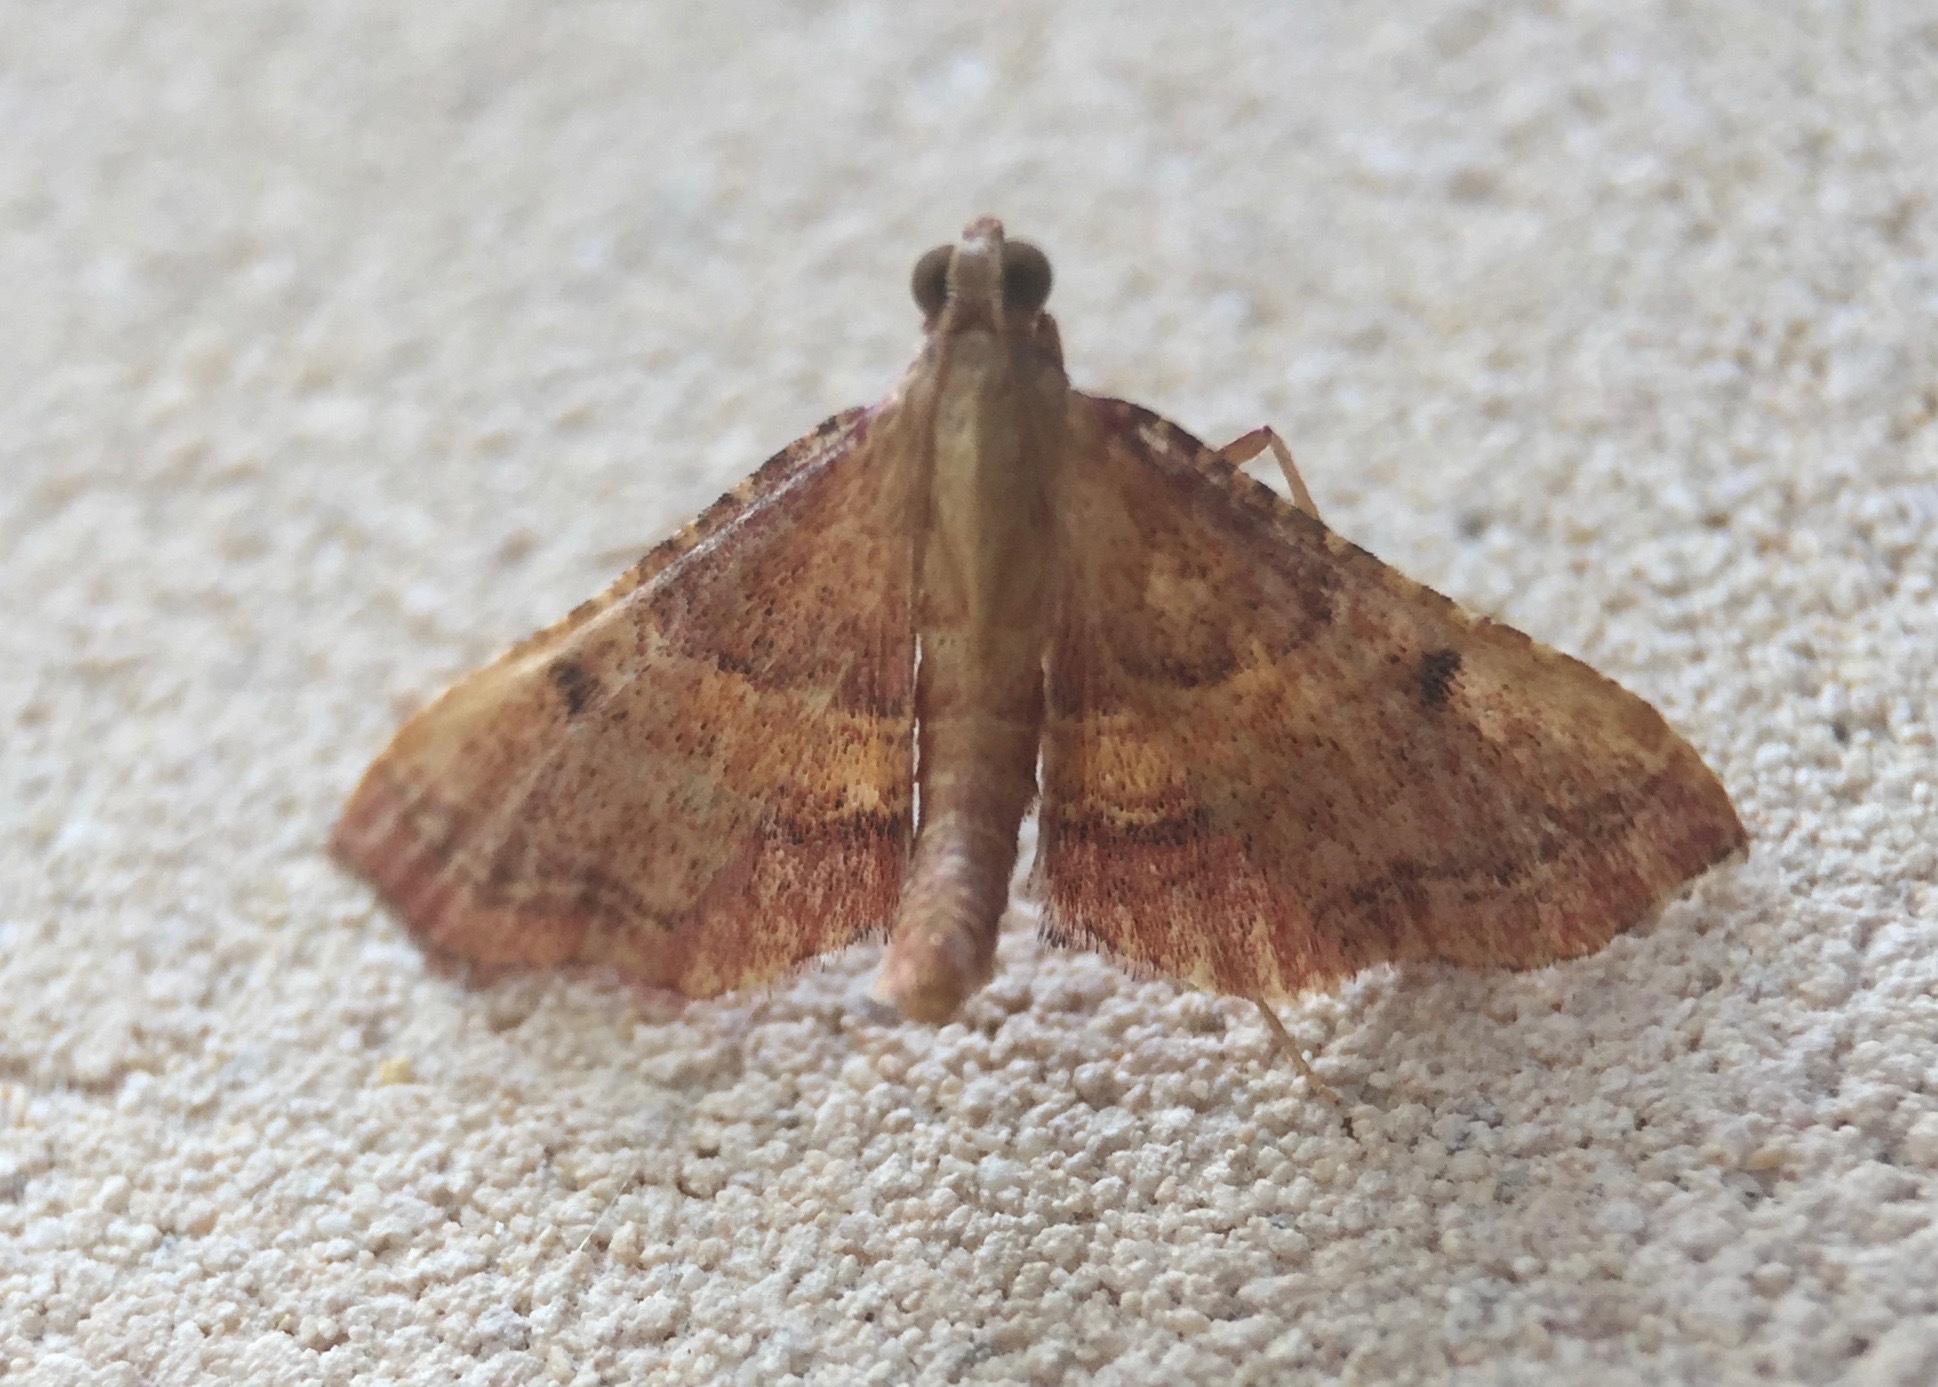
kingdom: Animalia
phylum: Arthropoda
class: Insecta
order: Lepidoptera
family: Pyralidae
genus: Endotricha
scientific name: Endotricha flammealis
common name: Rosy tabby
